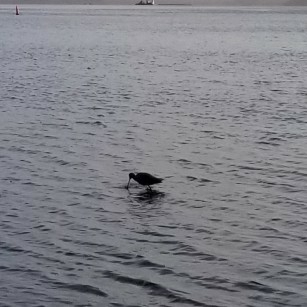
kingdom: Animalia
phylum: Chordata
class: Aves
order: Charadriiformes
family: Scolopacidae
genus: Limosa
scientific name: Limosa fedoa
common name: Marbled godwit
